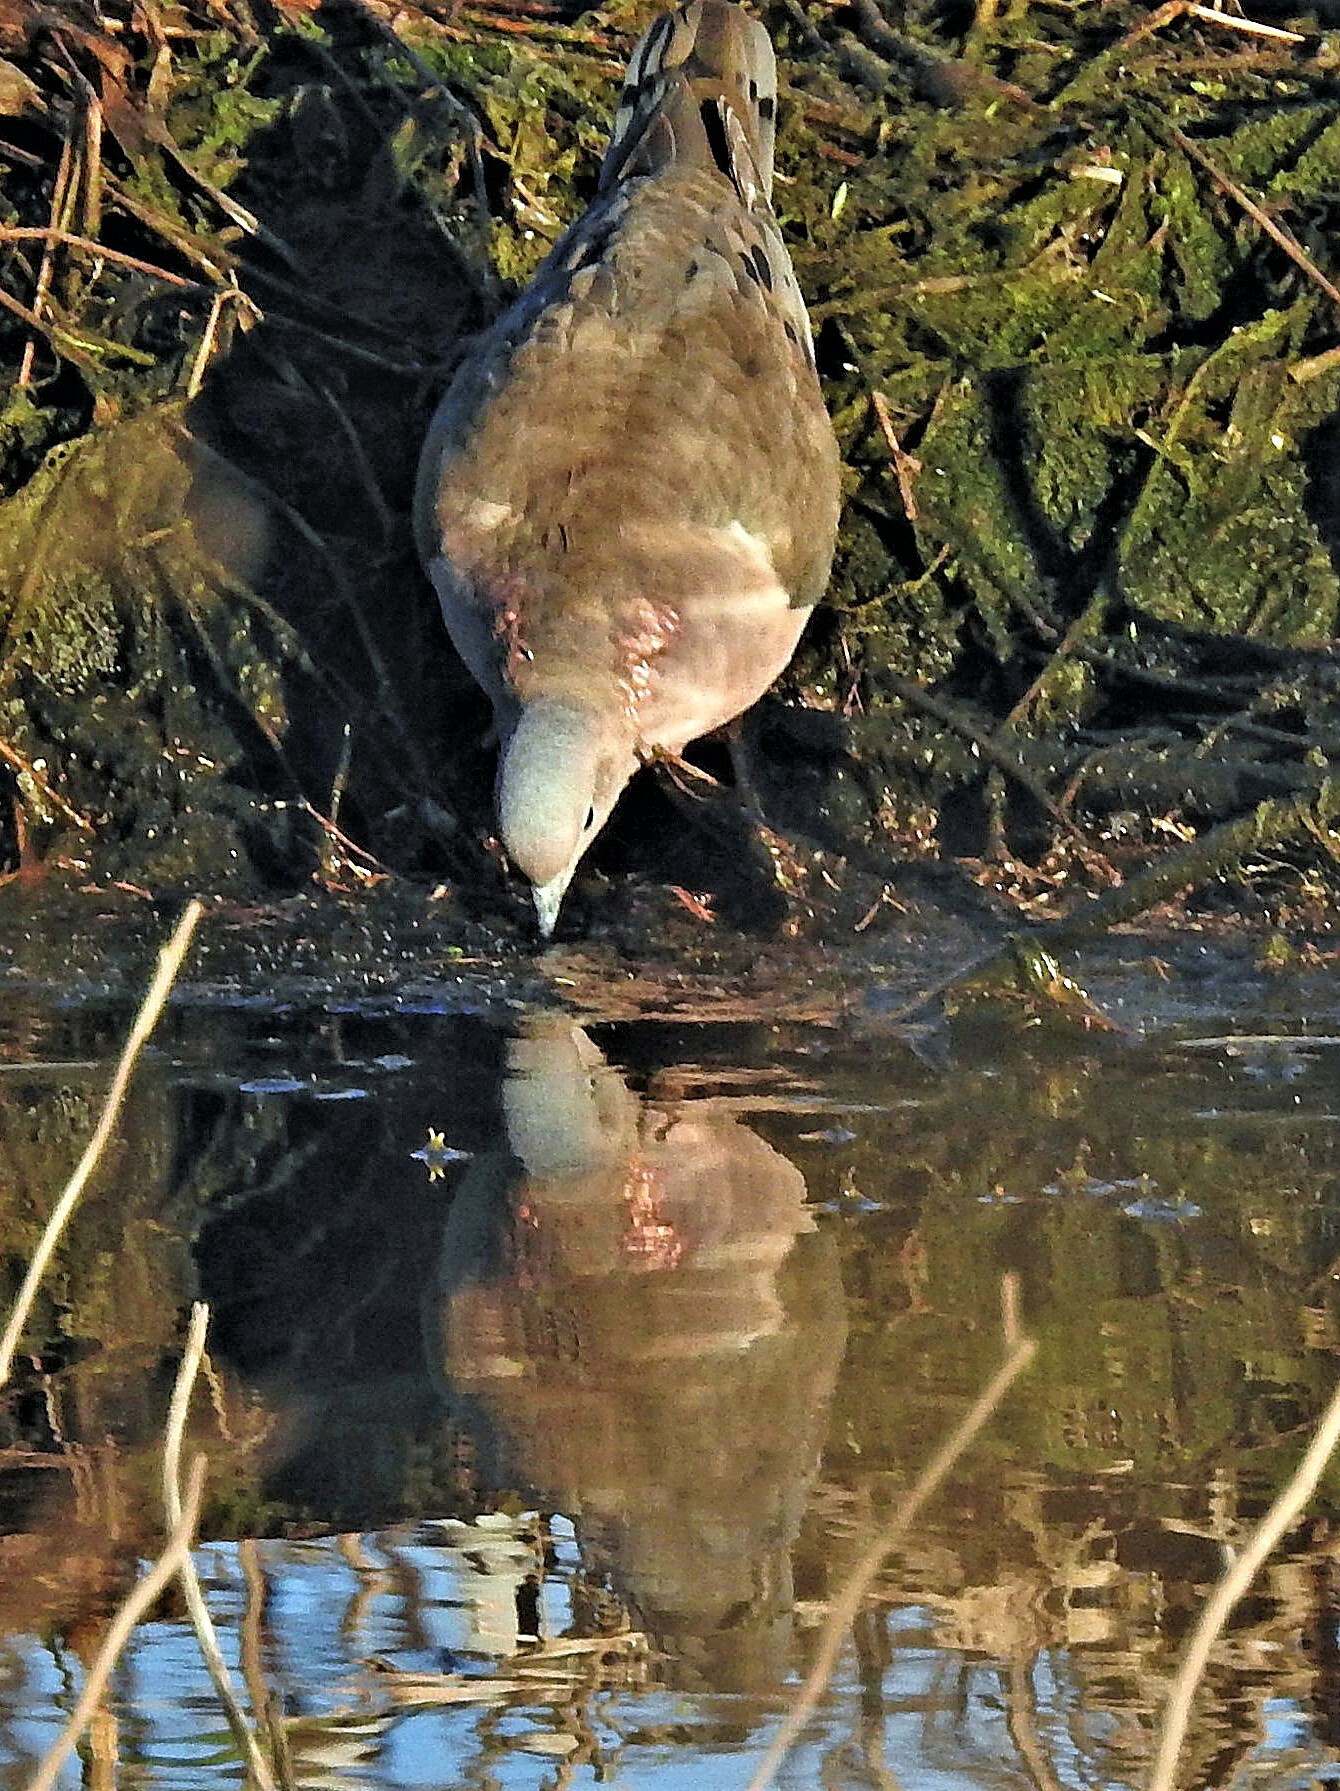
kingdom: Animalia
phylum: Chordata
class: Aves
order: Columbiformes
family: Columbidae
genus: Zenaida
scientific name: Zenaida auriculata
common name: Eared dove
